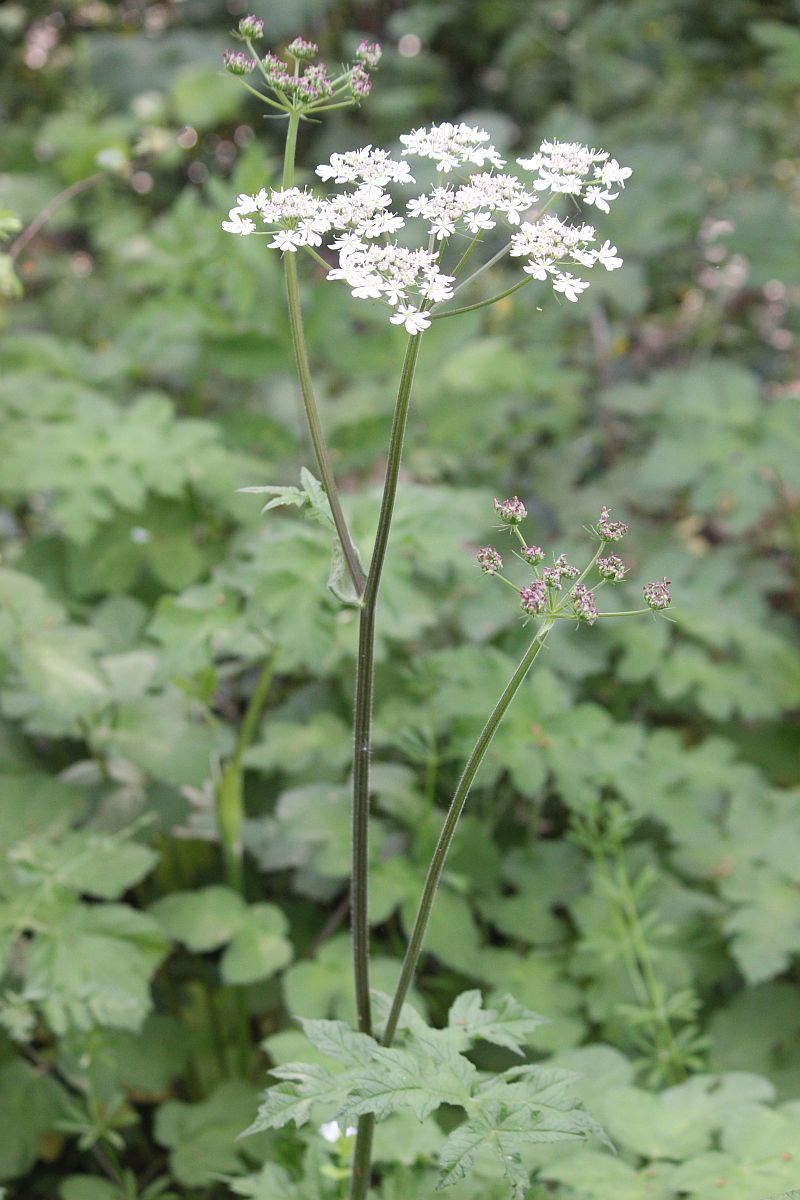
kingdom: Plantae
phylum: Tracheophyta
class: Magnoliopsida
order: Apiales
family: Apiaceae
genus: Heracleum
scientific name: Heracleum sphondylium
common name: Hogweed
